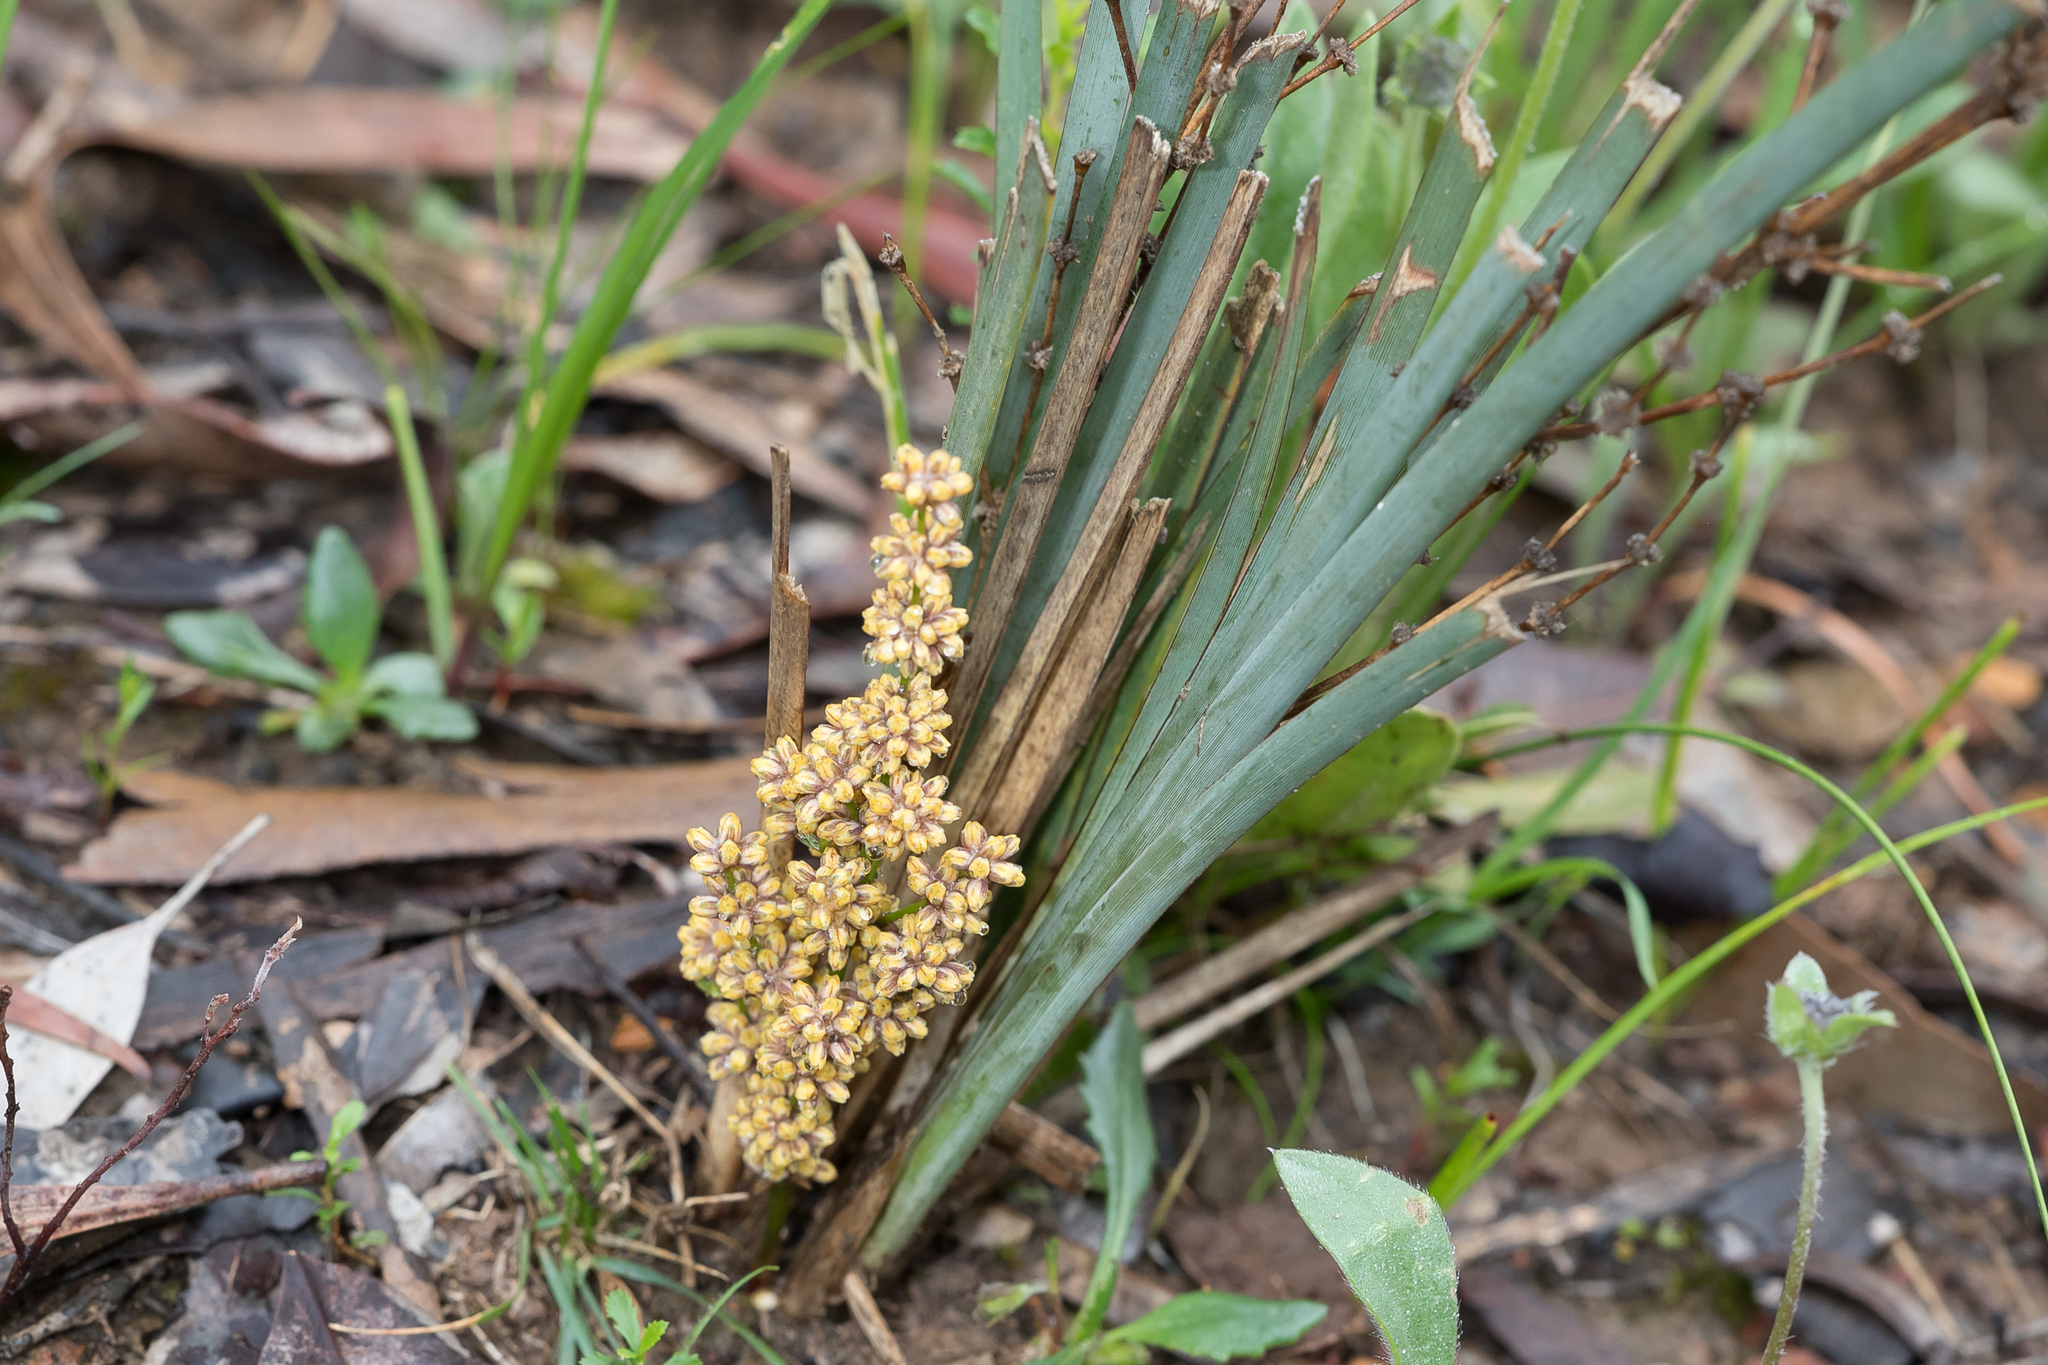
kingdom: Plantae
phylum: Tracheophyta
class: Liliopsida
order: Asparagales
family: Asparagaceae
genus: Lomandra
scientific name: Lomandra multiflora
